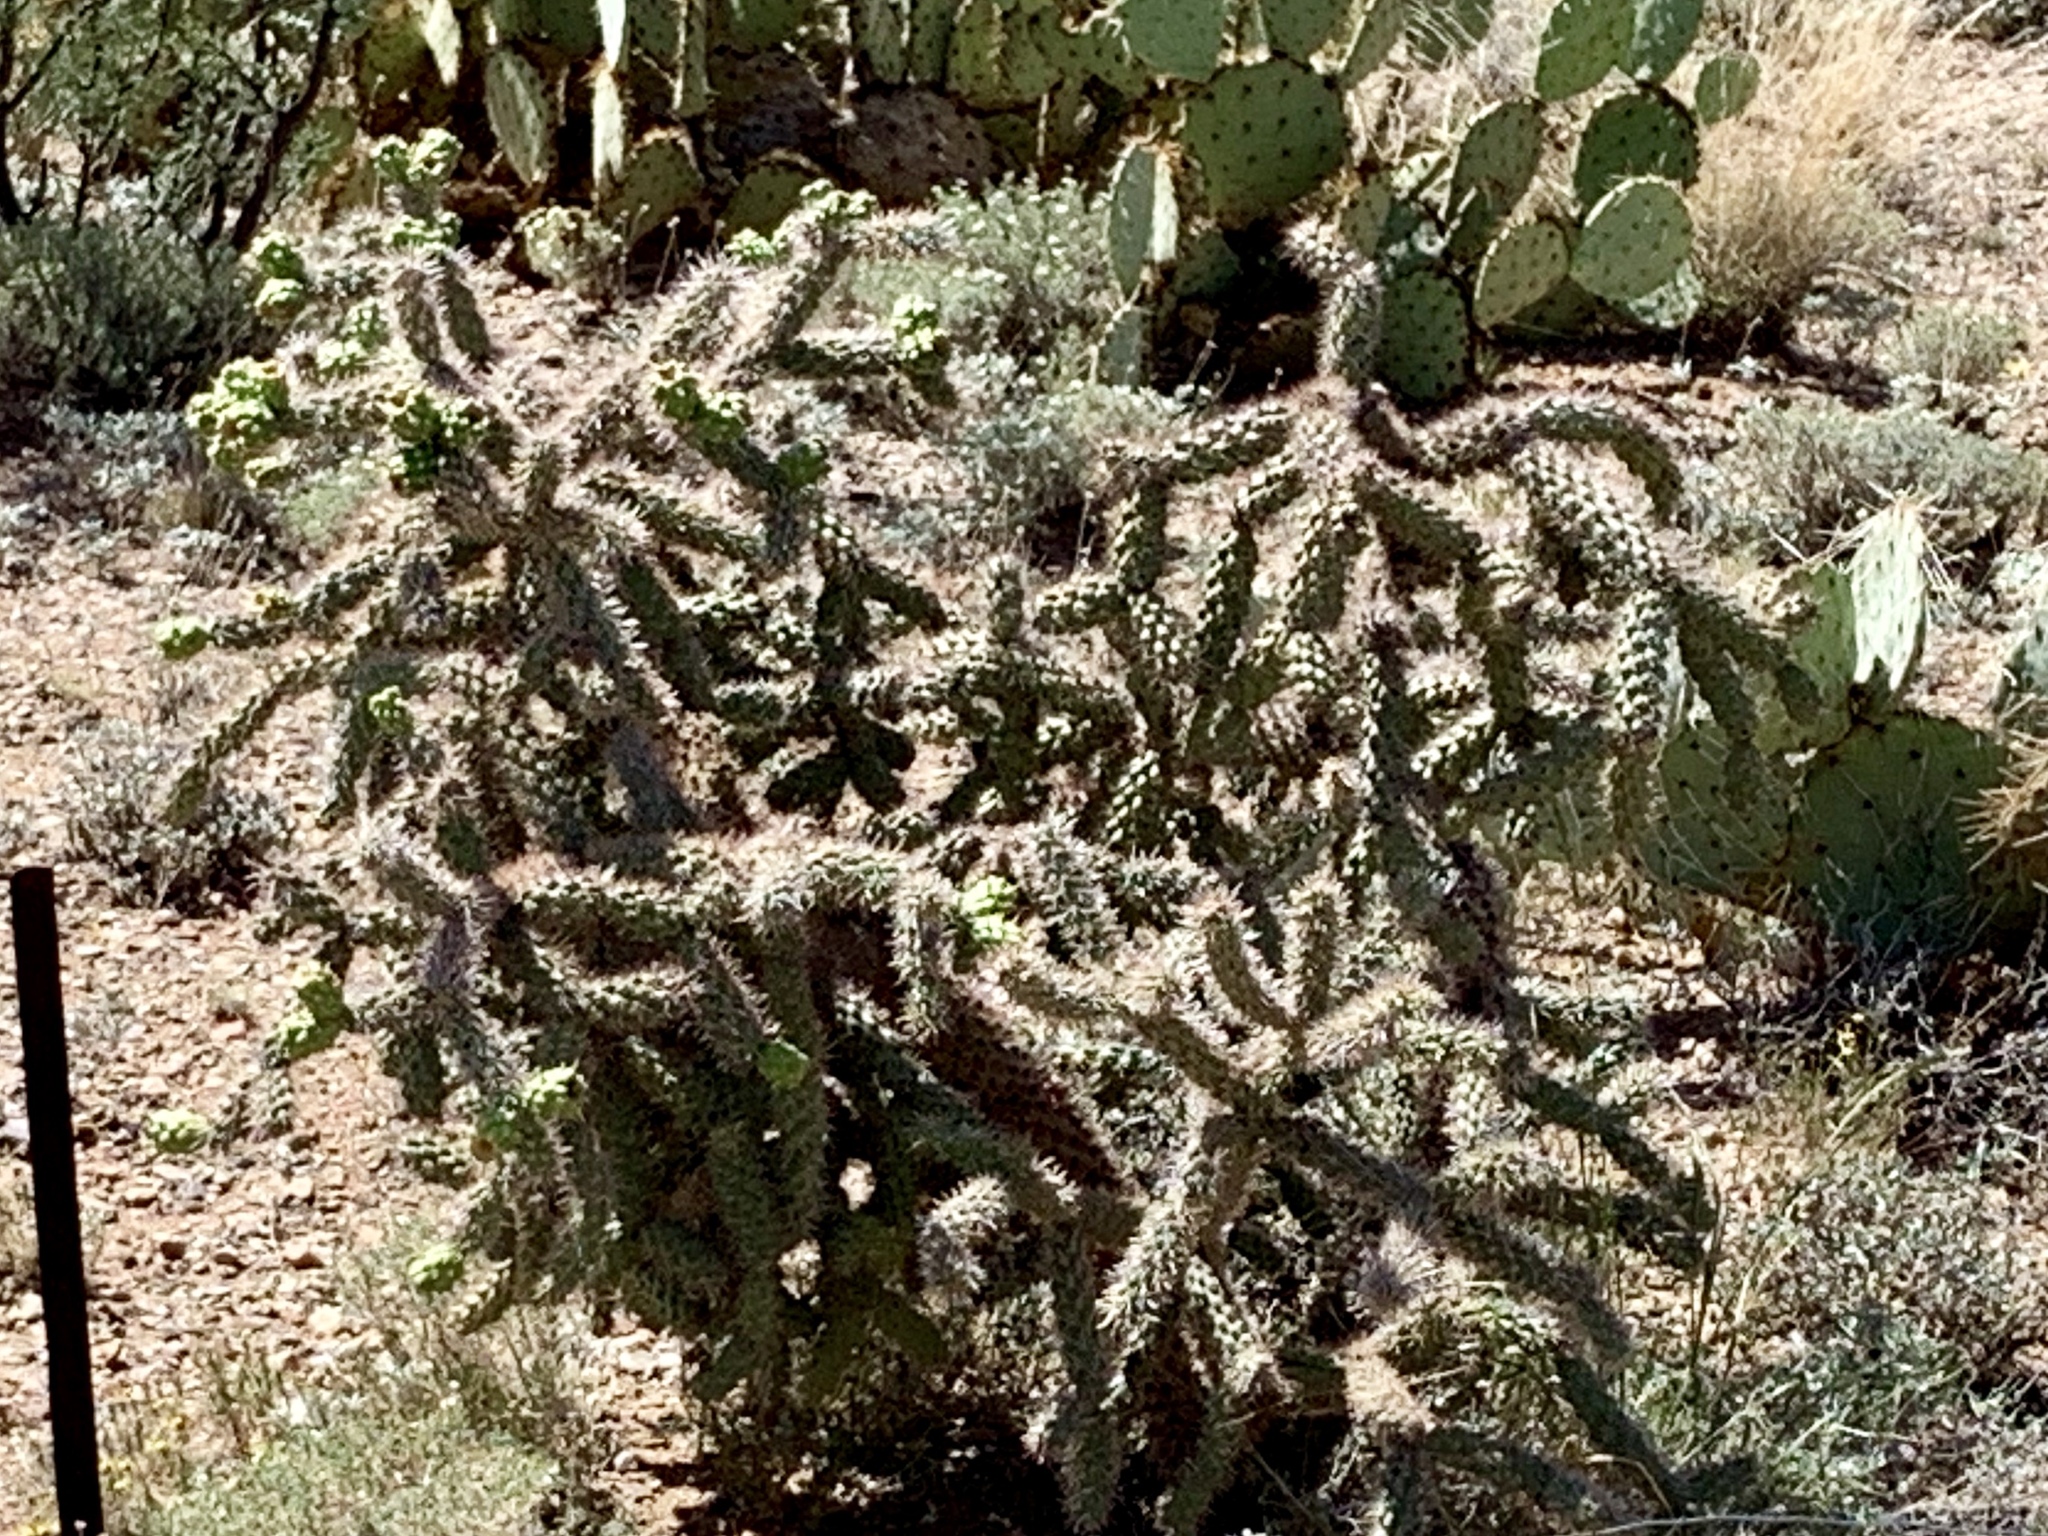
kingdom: Plantae
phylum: Tracheophyta
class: Magnoliopsida
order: Caryophyllales
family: Cactaceae
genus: Cylindropuntia
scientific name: Cylindropuntia imbricata
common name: Candelabrum cactus
